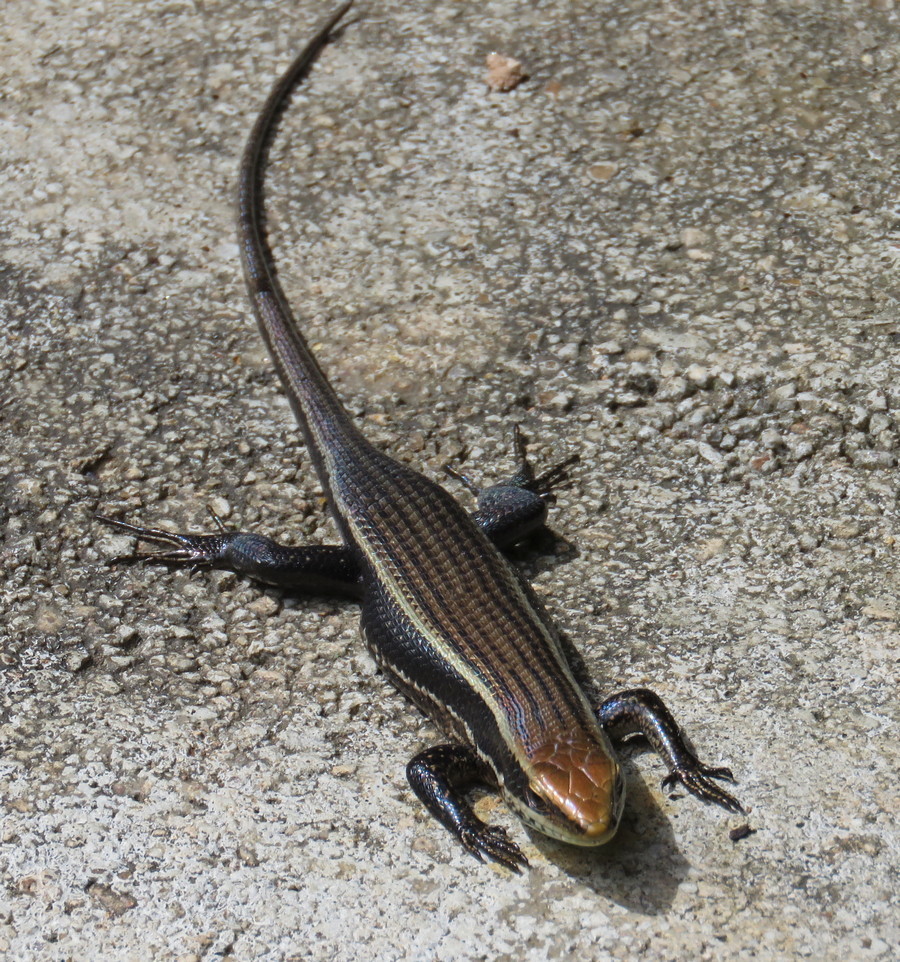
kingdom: Animalia
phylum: Chordata
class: Squamata
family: Scincidae
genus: Eutropis
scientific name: Eutropis greeri
